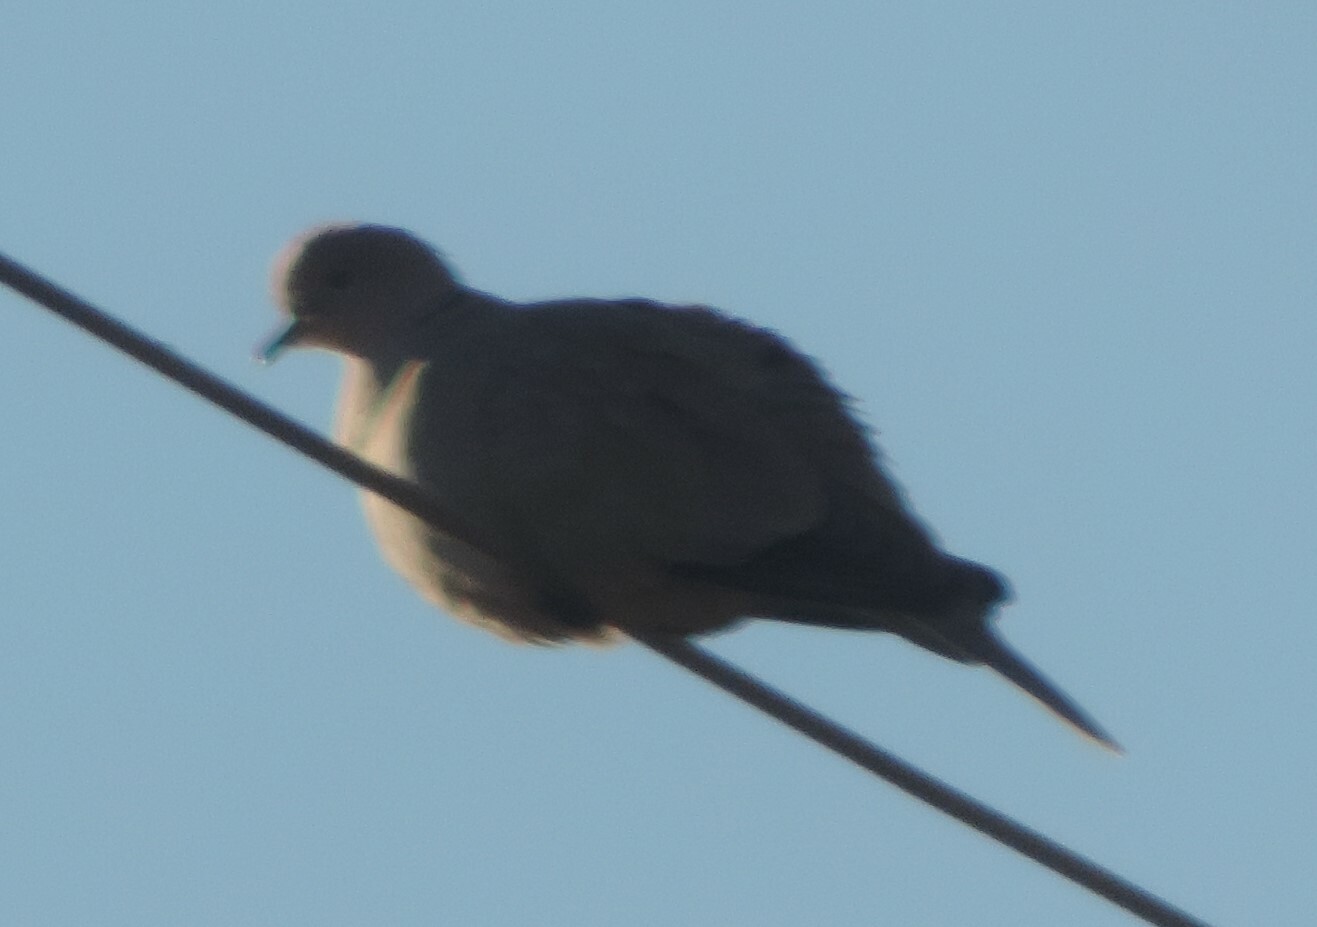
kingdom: Animalia
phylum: Chordata
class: Aves
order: Columbiformes
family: Columbidae
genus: Streptopelia
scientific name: Streptopelia decaocto
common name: Eurasian collared dove
